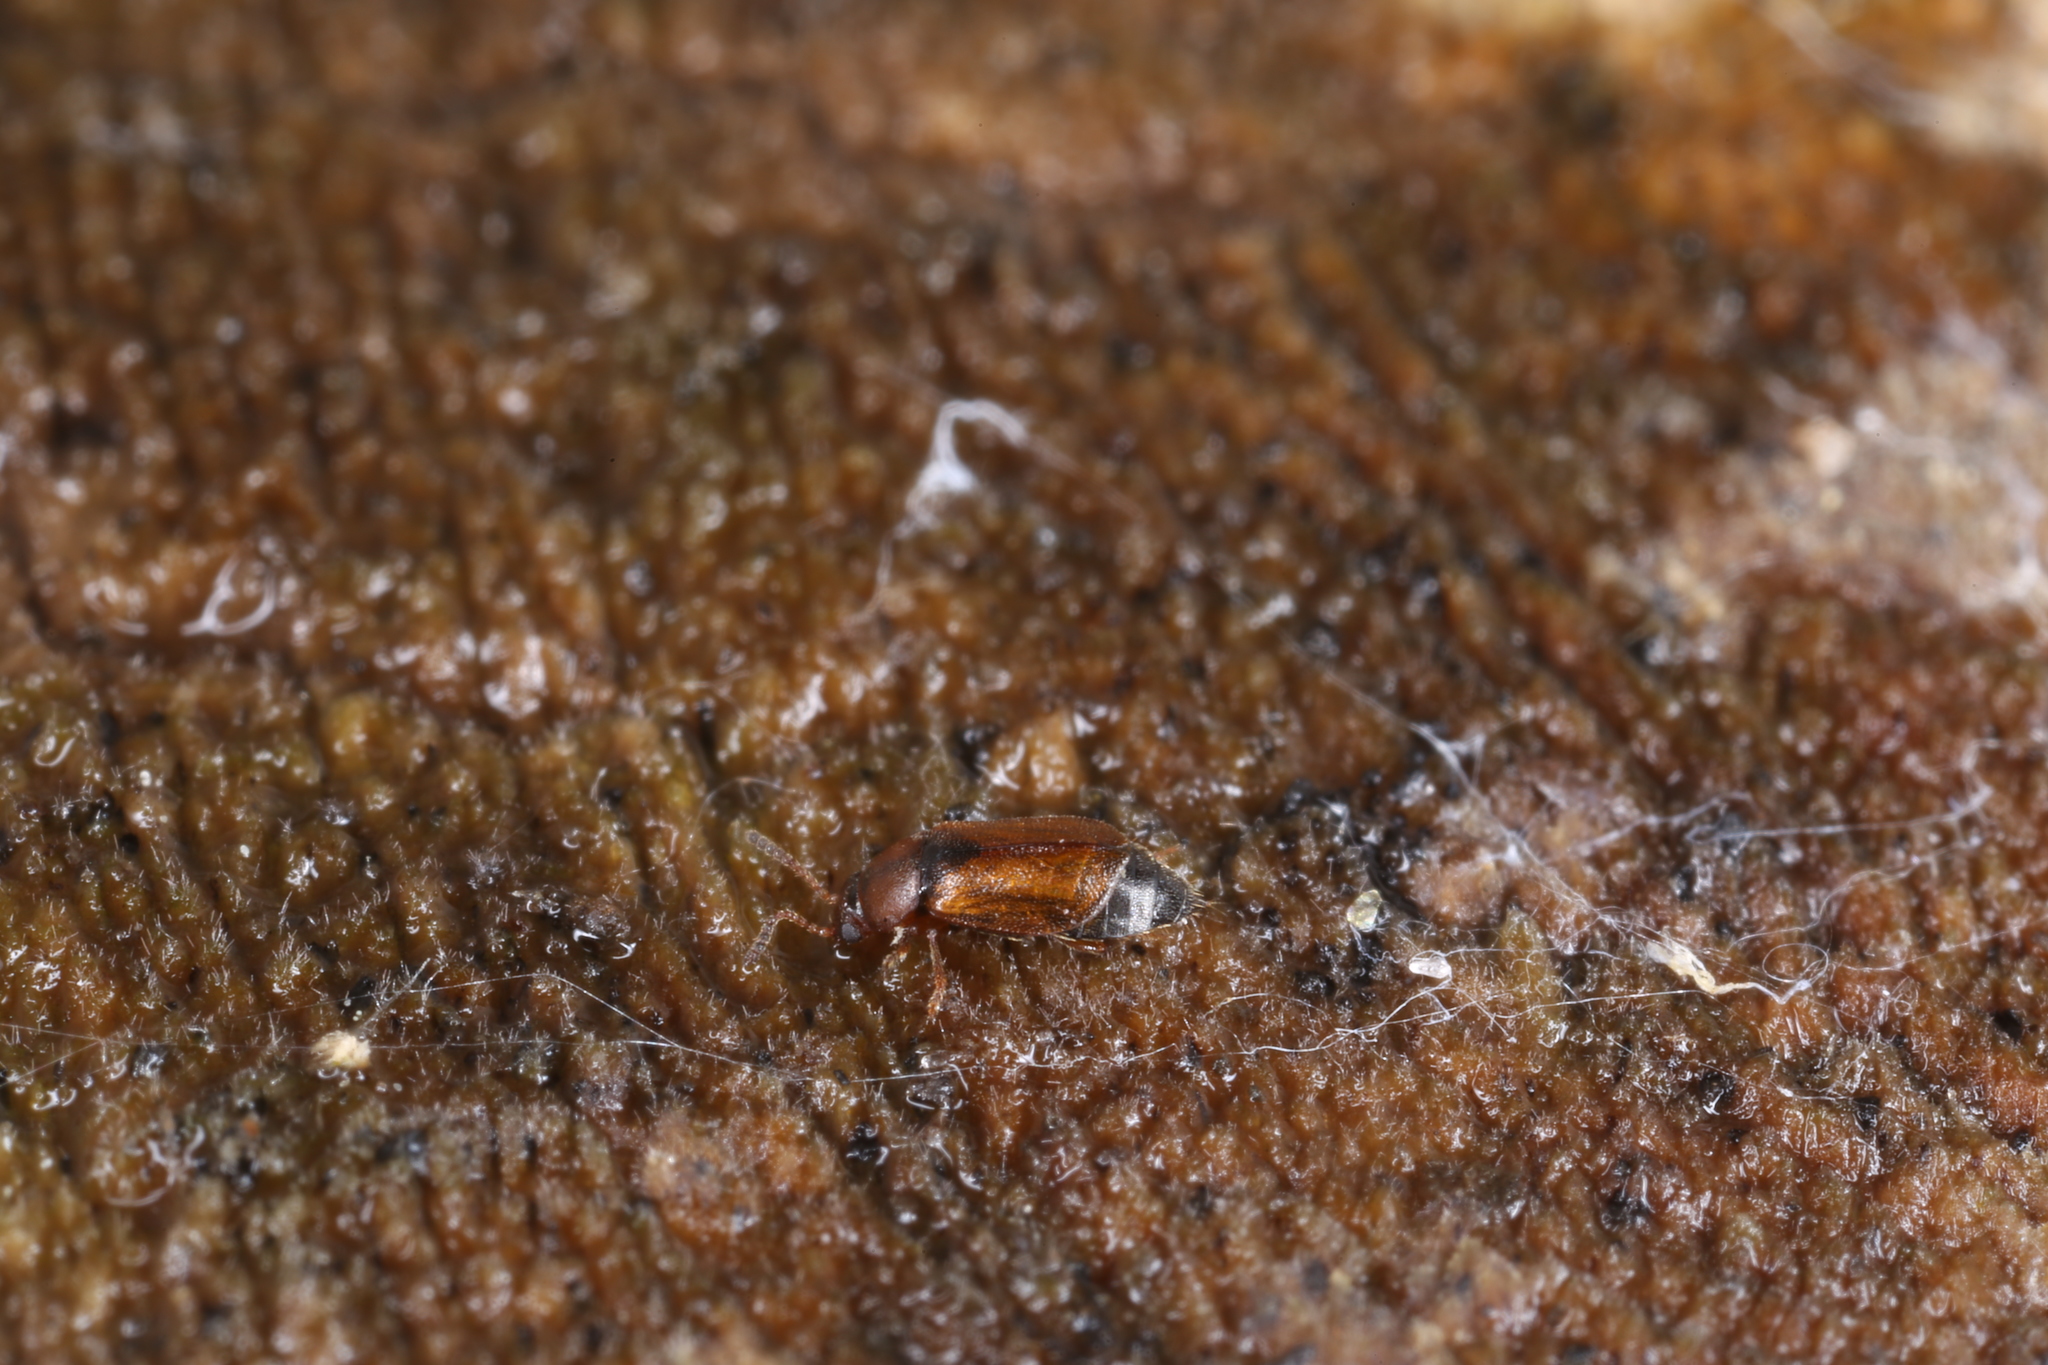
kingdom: Animalia
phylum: Arthropoda
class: Insecta
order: Coleoptera
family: Staphylinidae
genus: Eusphalerum
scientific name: Eusphalerum torquatum
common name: Staph beetle
